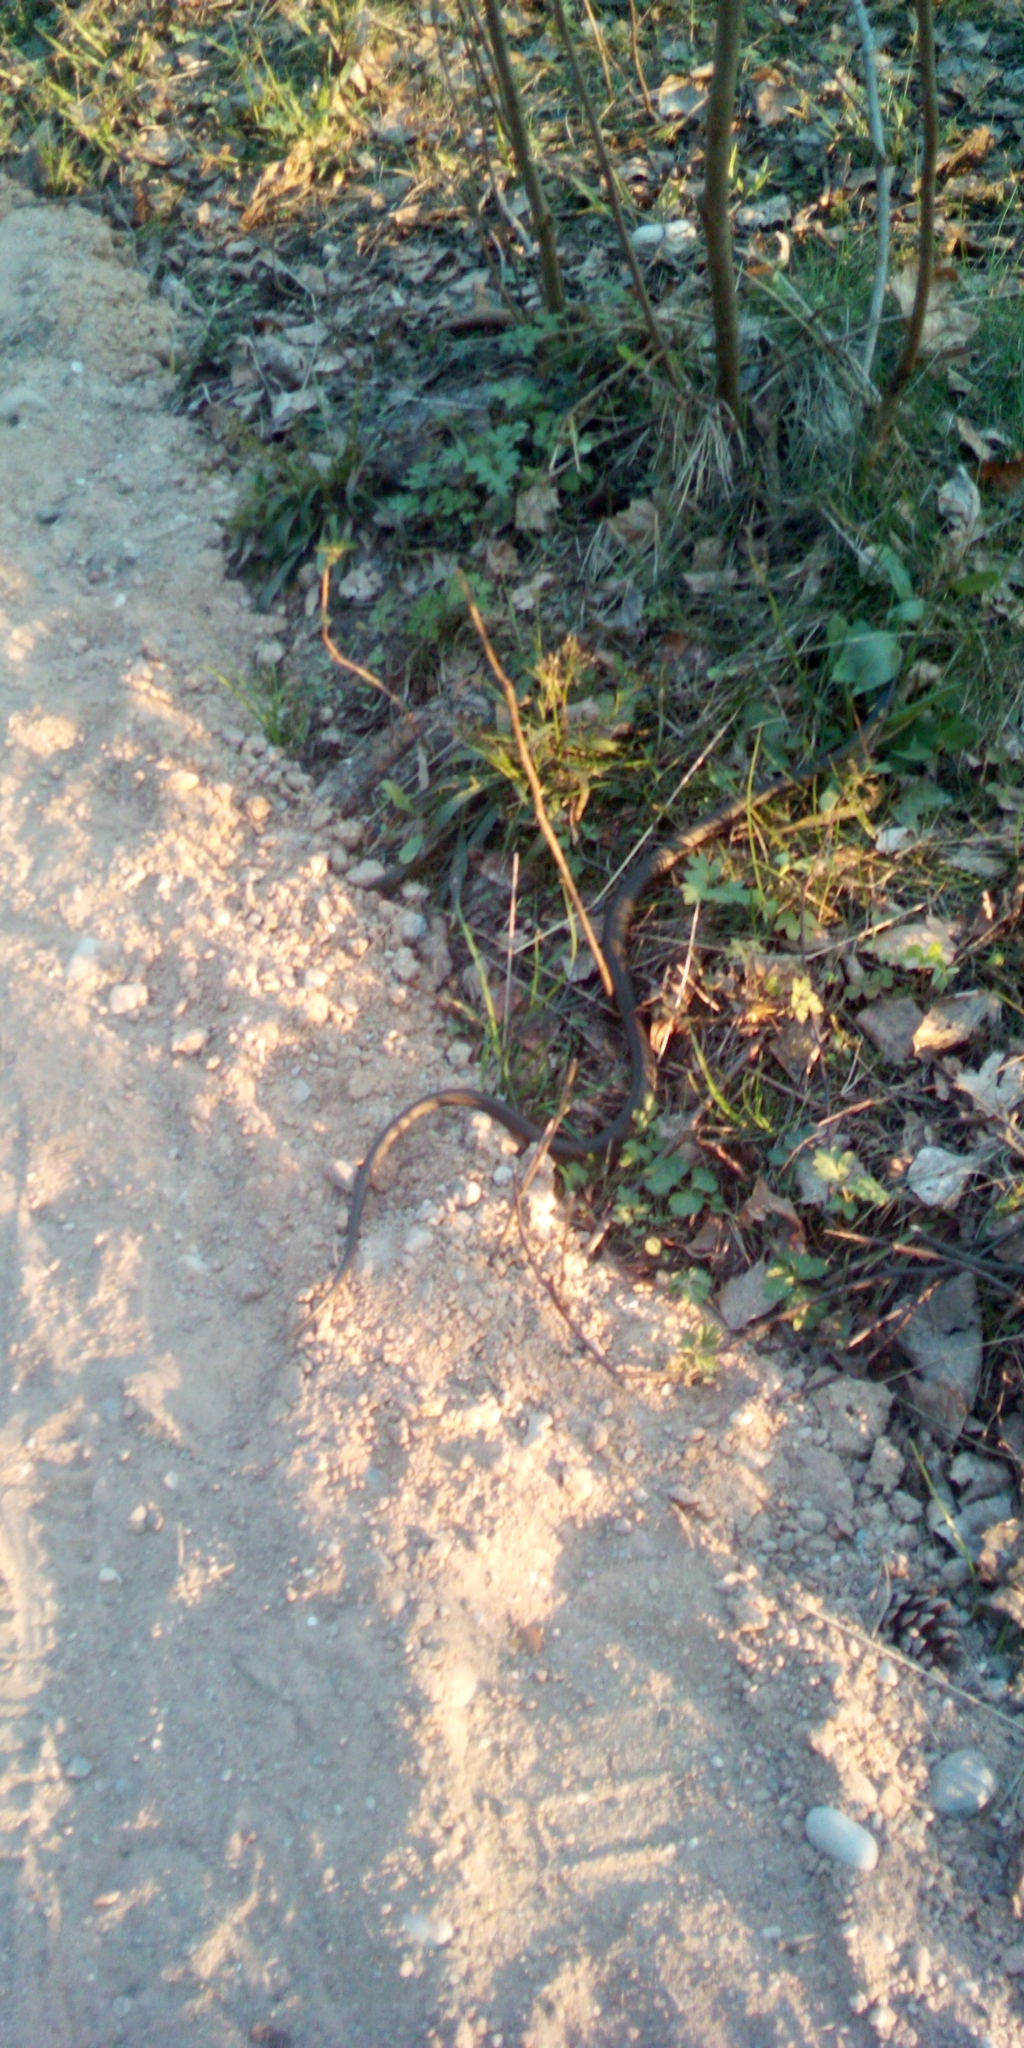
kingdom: Animalia
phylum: Chordata
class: Squamata
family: Colubridae
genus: Natrix
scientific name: Natrix natrix
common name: Grass snake
